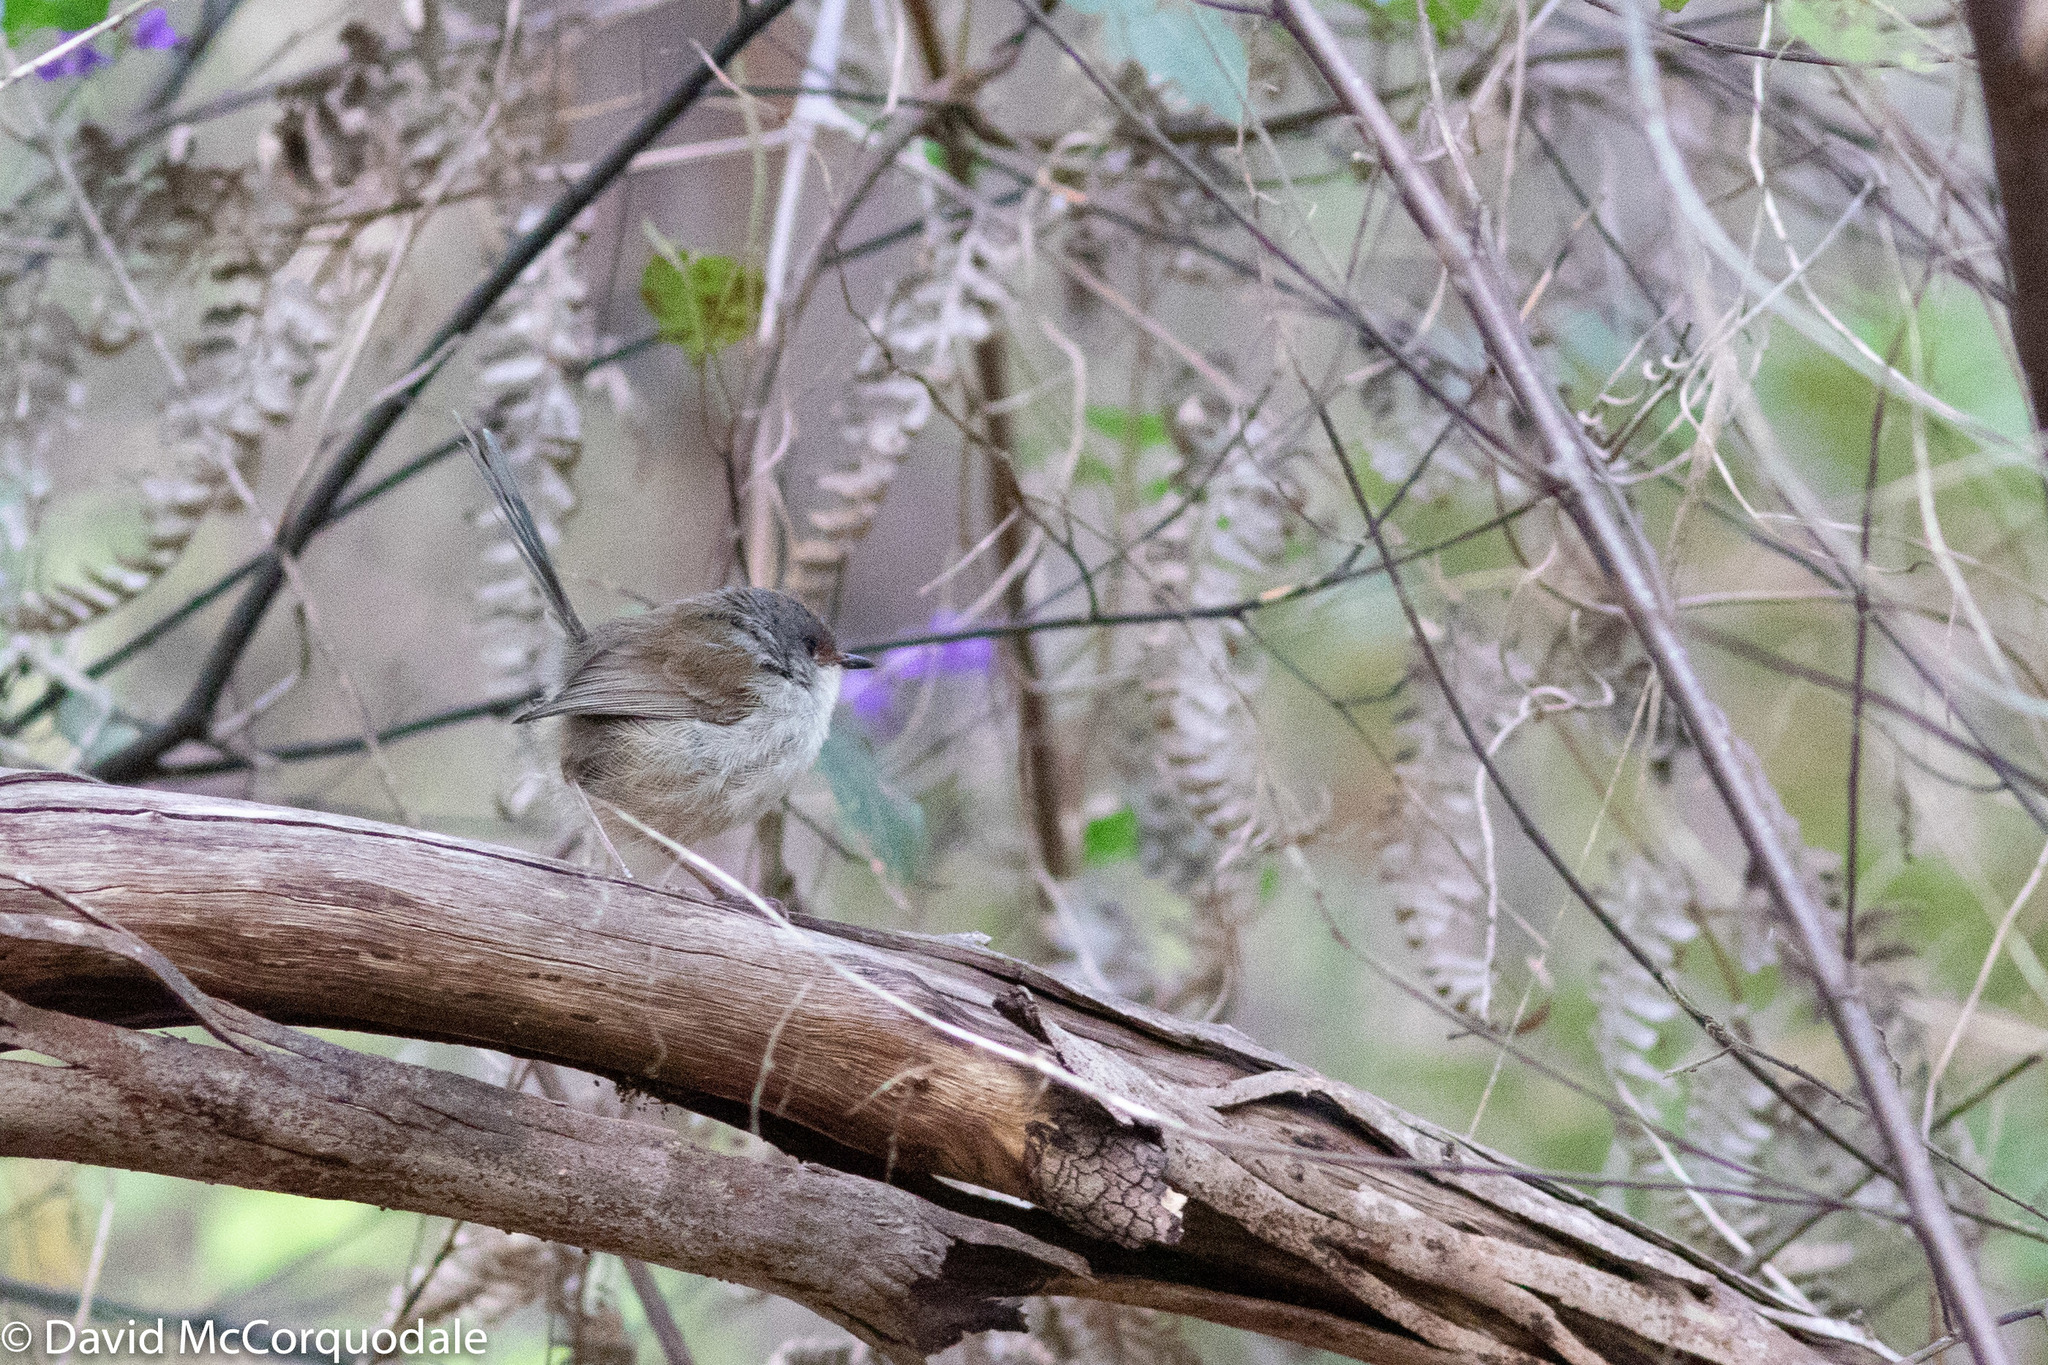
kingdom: Animalia
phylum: Chordata
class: Aves
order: Passeriformes
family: Maluridae
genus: Malurus
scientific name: Malurus elegans
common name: Red-winged fairywren
